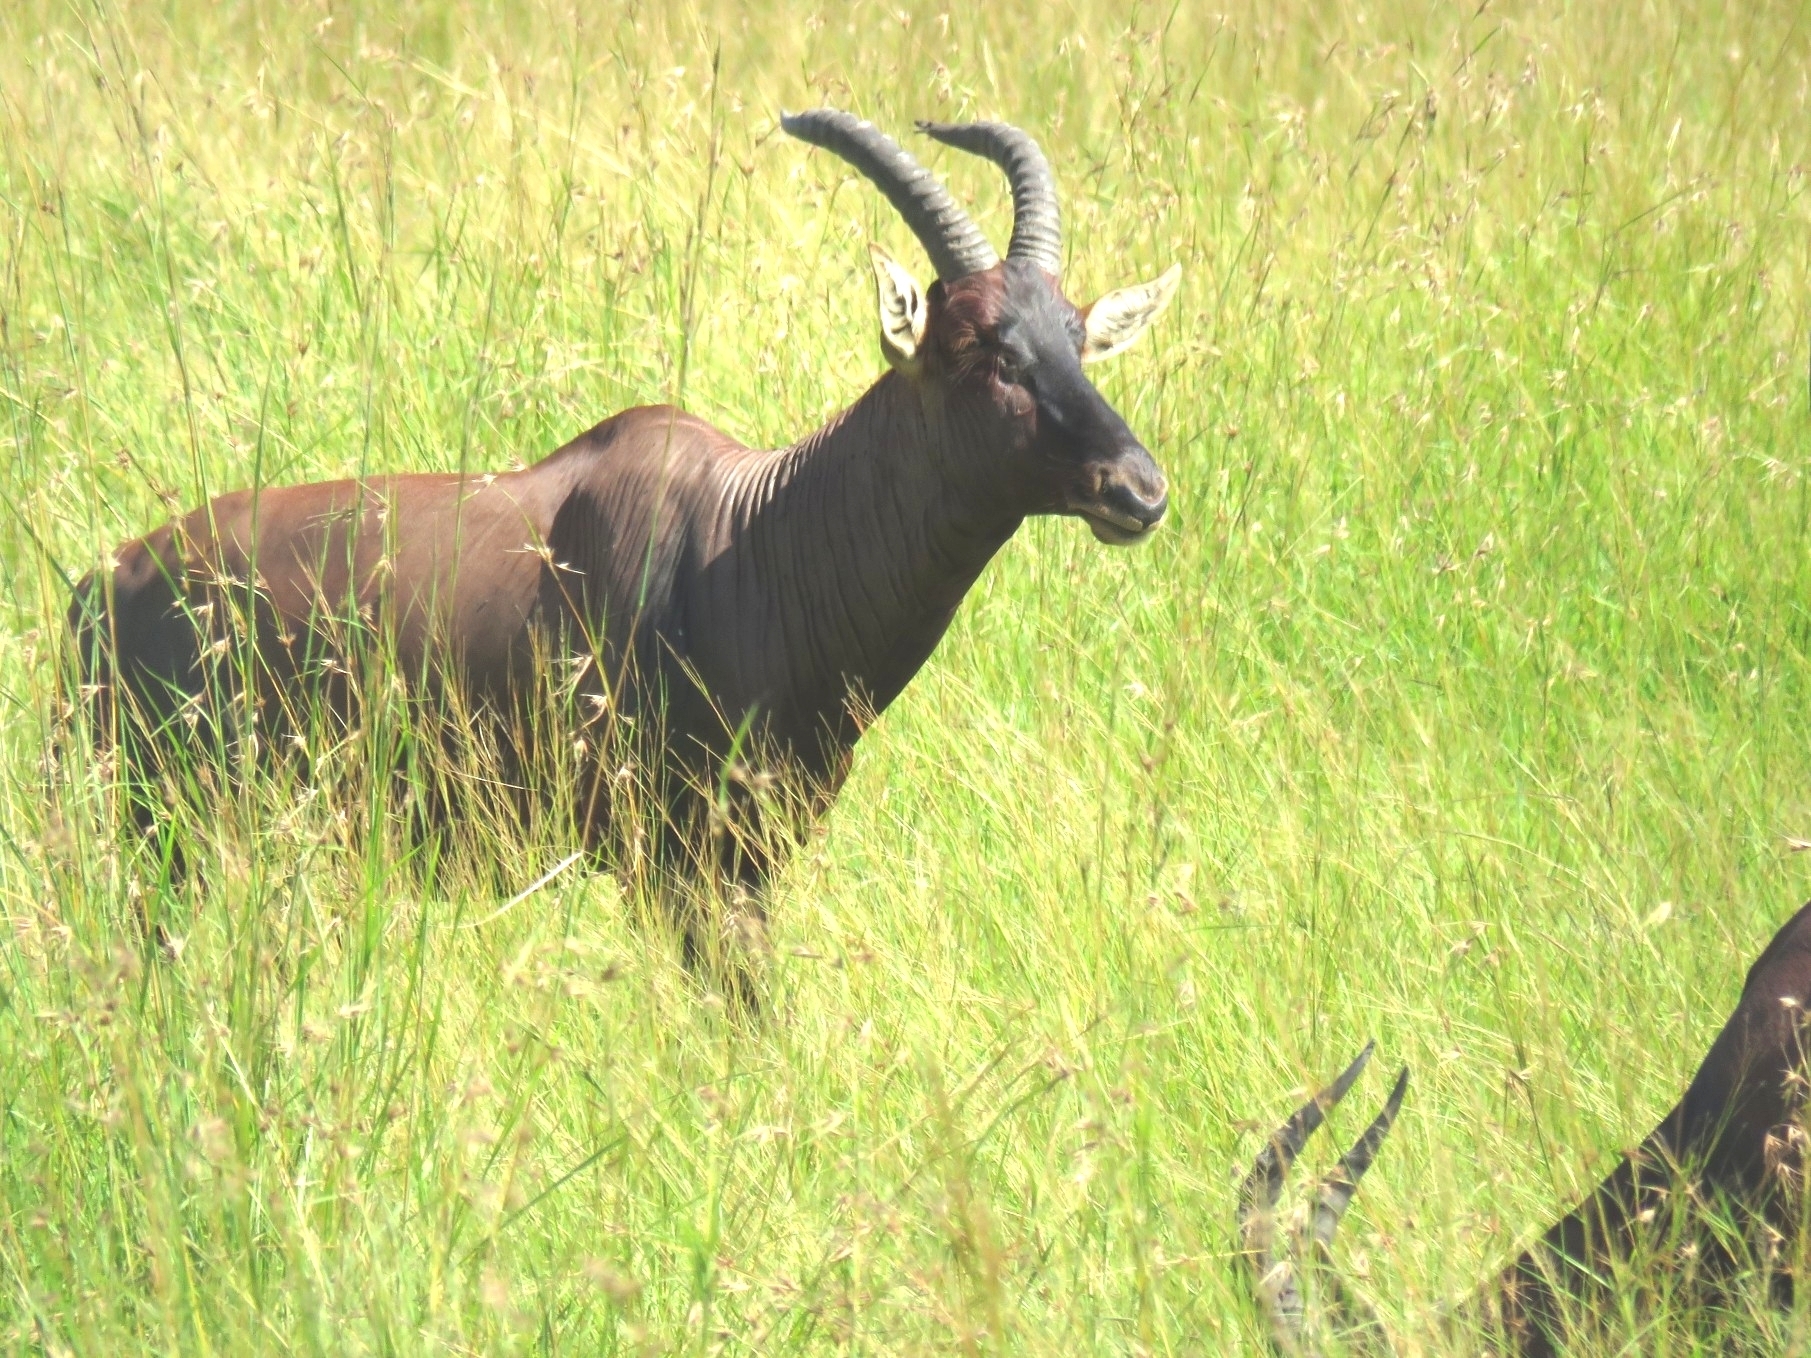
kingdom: Animalia
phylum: Chordata
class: Mammalia
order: Artiodactyla
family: Bovidae
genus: Damaliscus
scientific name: Damaliscus korrigum
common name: Topi
